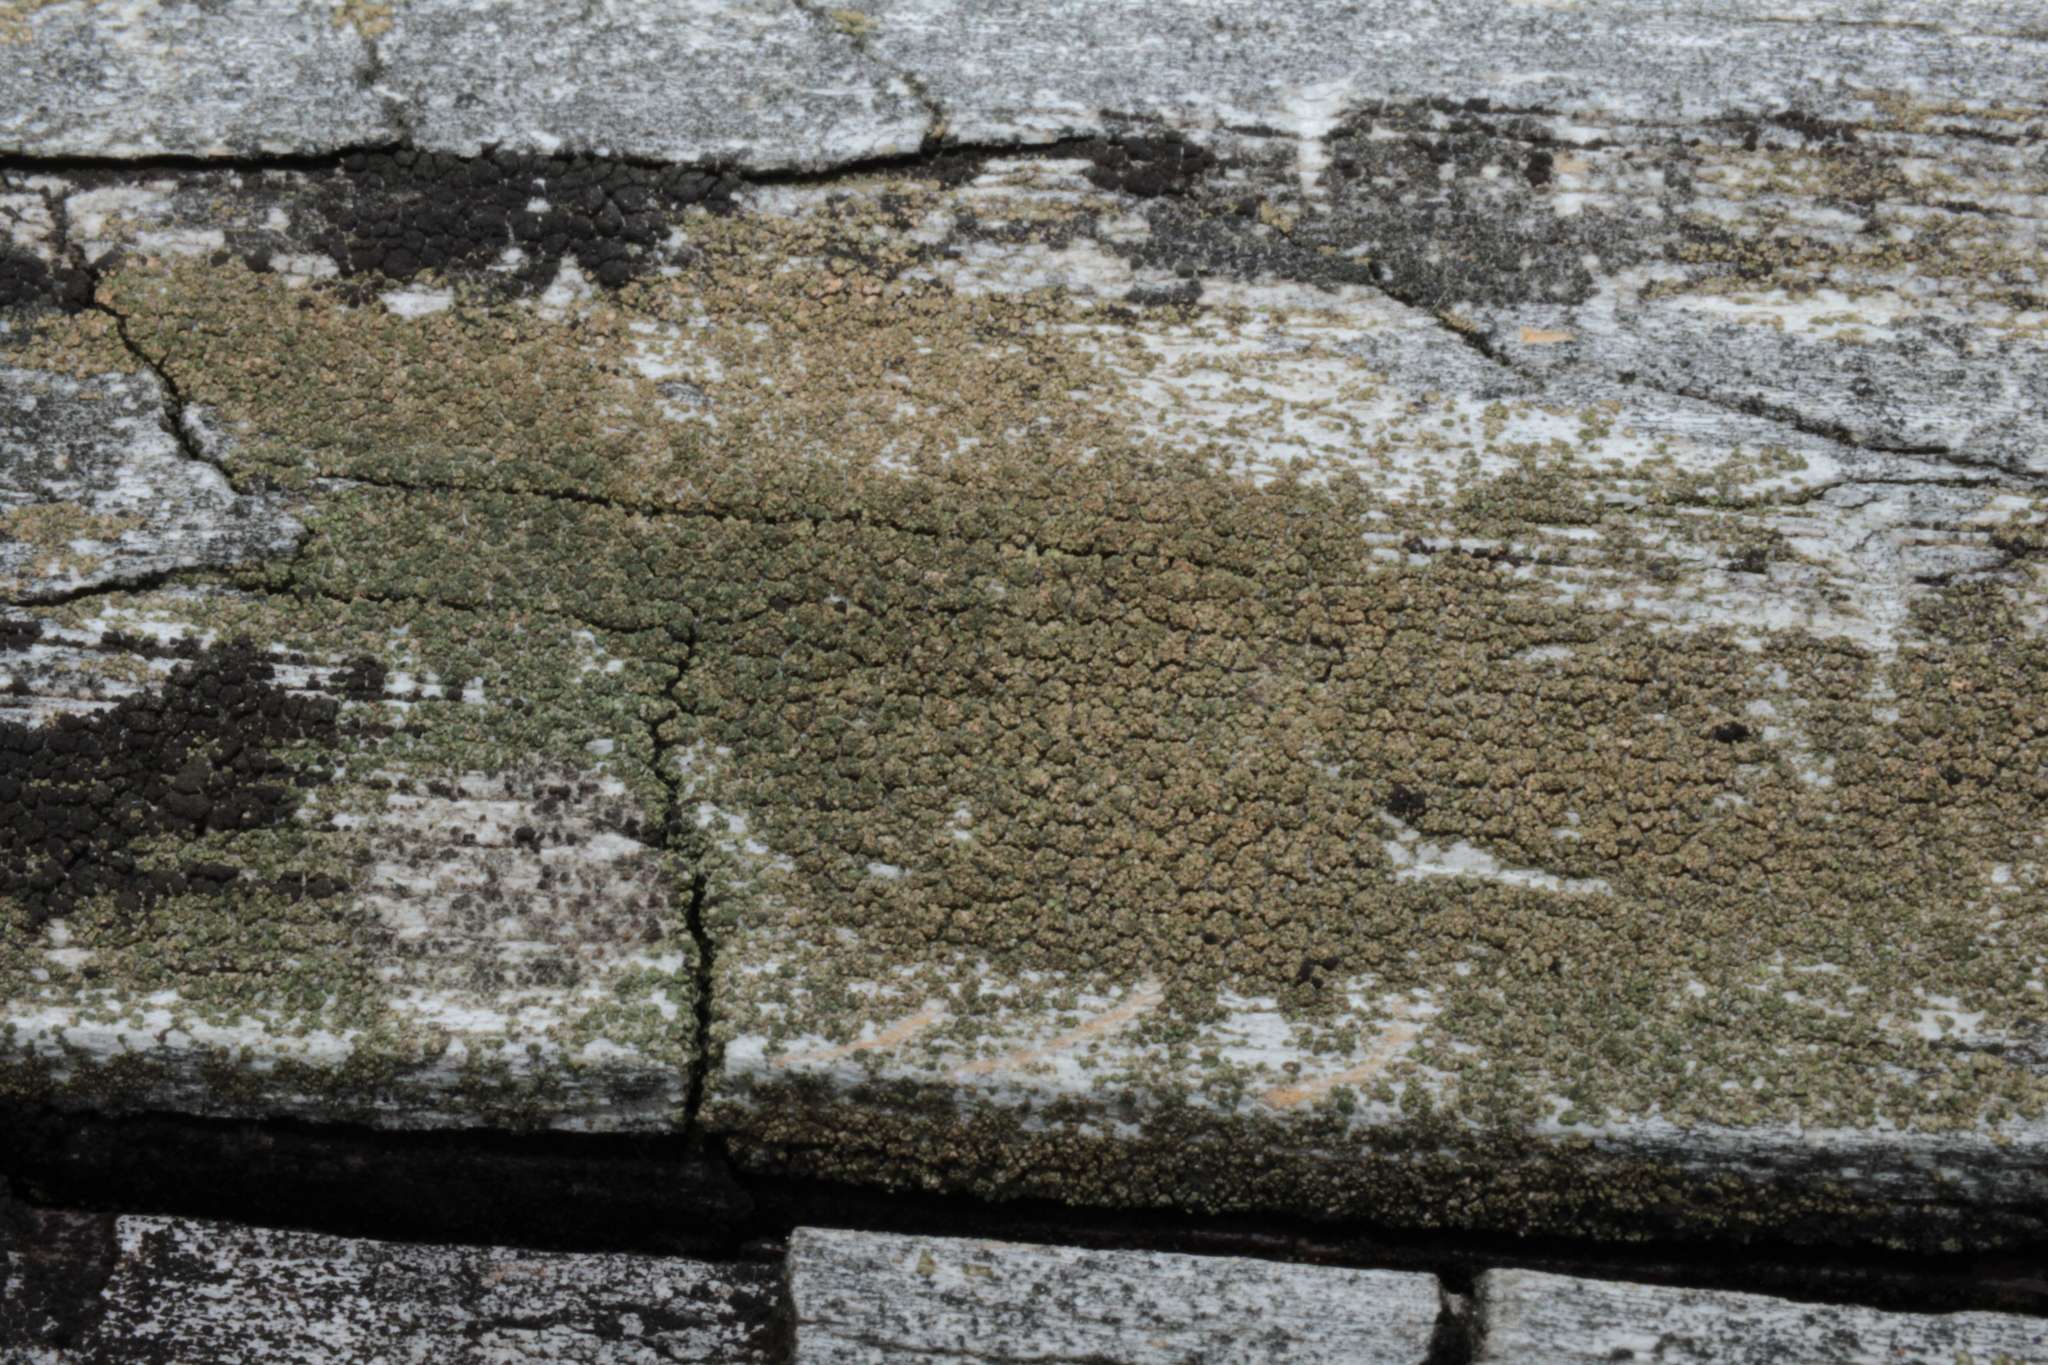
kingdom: Fungi
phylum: Ascomycota
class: Lecanoromycetes
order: Baeomycetales
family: Trapeliaceae
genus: Trapeliopsis
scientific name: Trapeliopsis flexuosa
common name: Board lichen
